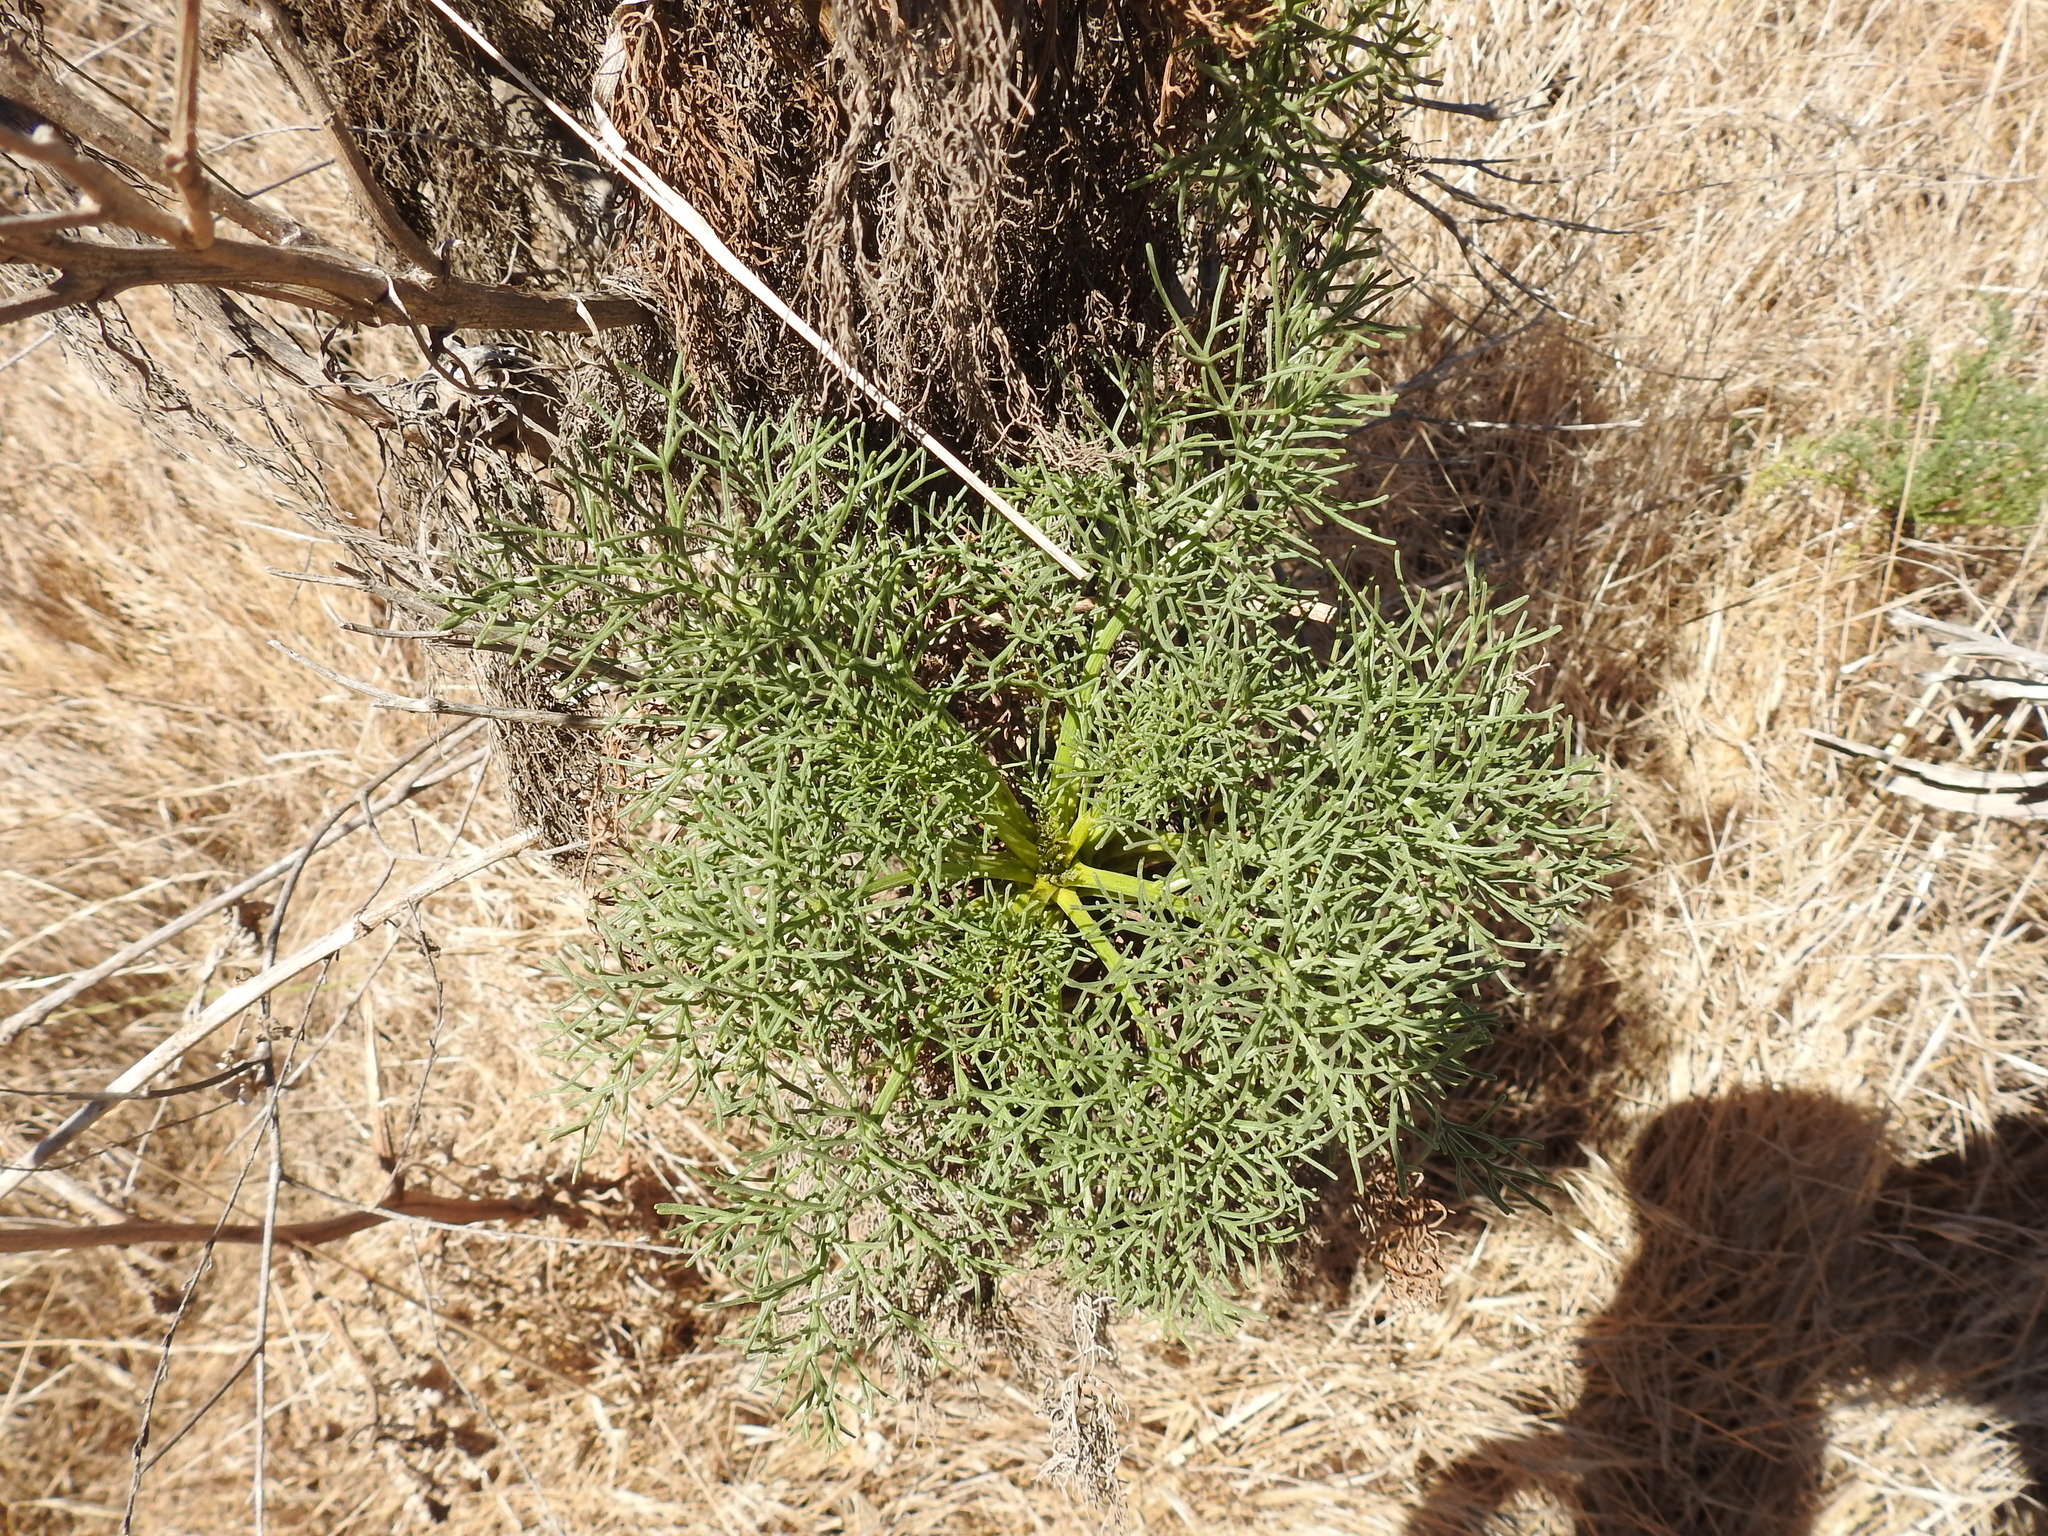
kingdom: Plantae
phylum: Tracheophyta
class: Magnoliopsida
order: Asterales
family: Asteraceae
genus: Coreopsis
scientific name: Coreopsis gigantea
